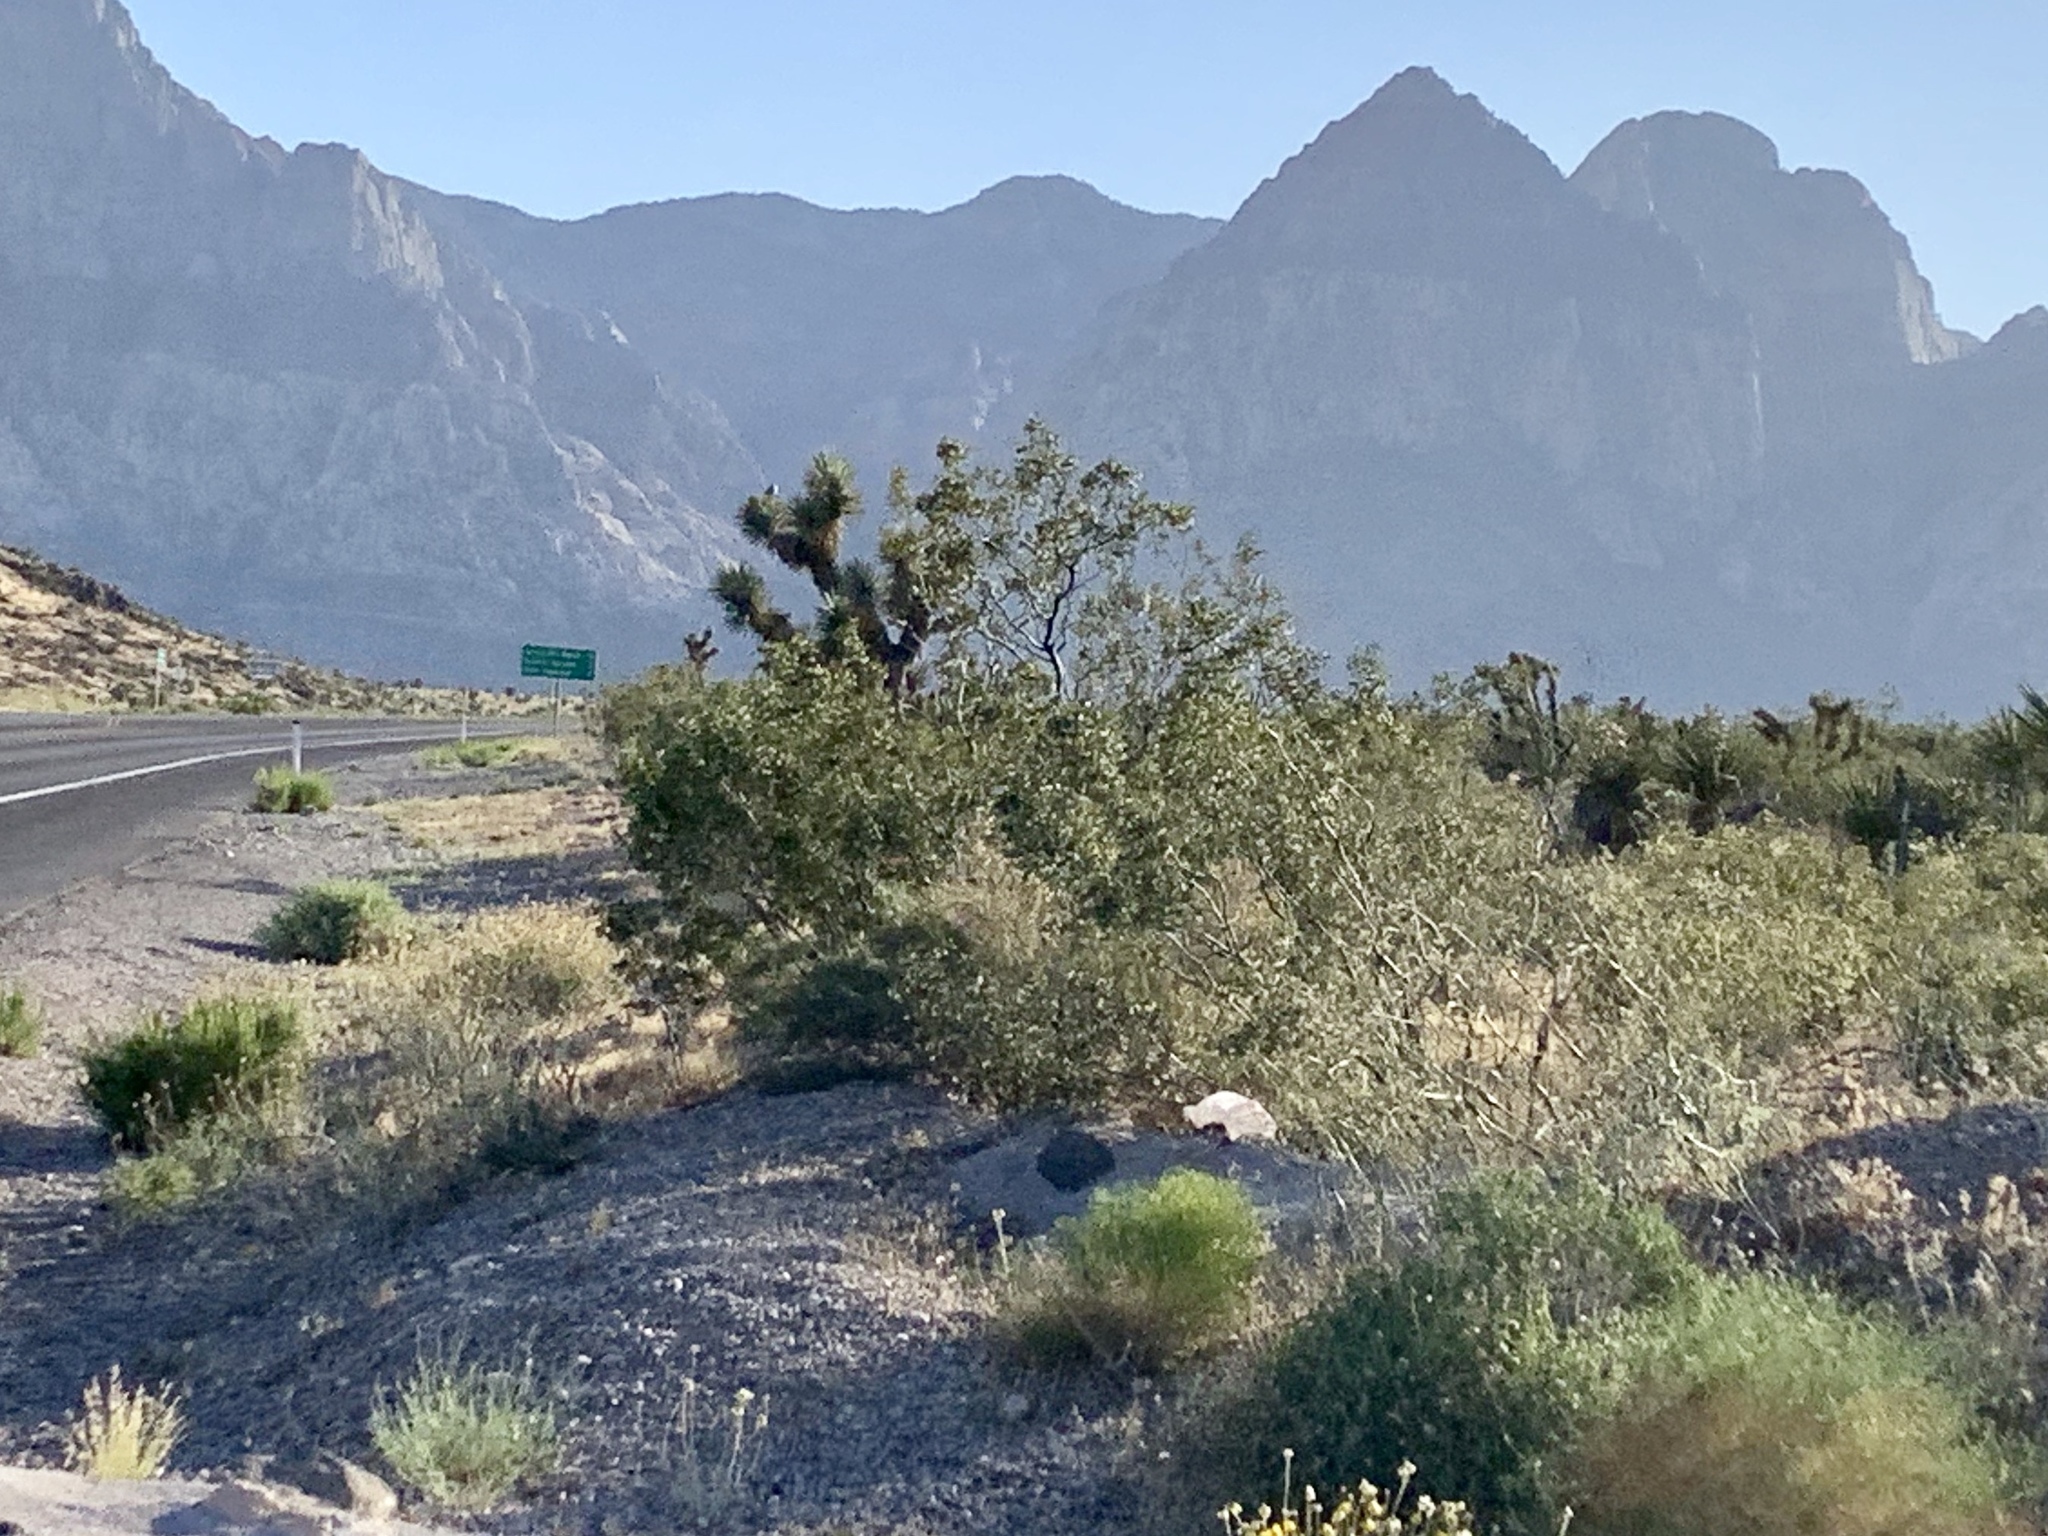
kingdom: Plantae
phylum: Tracheophyta
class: Magnoliopsida
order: Zygophyllales
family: Zygophyllaceae
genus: Larrea
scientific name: Larrea tridentata
